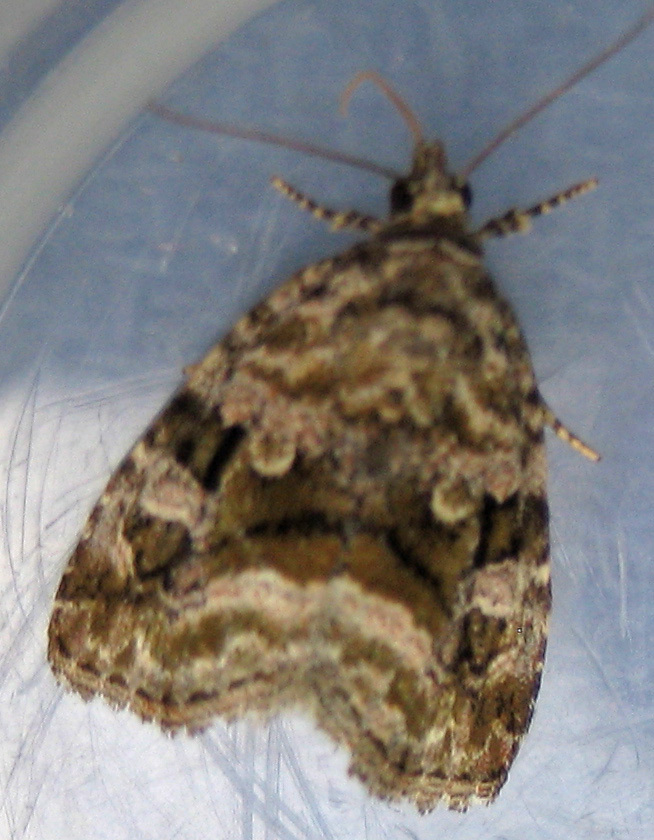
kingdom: Animalia
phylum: Arthropoda
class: Insecta
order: Lepidoptera
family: Noctuidae
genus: Protodeltote
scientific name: Protodeltote muscosula
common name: Large mossy glyph
